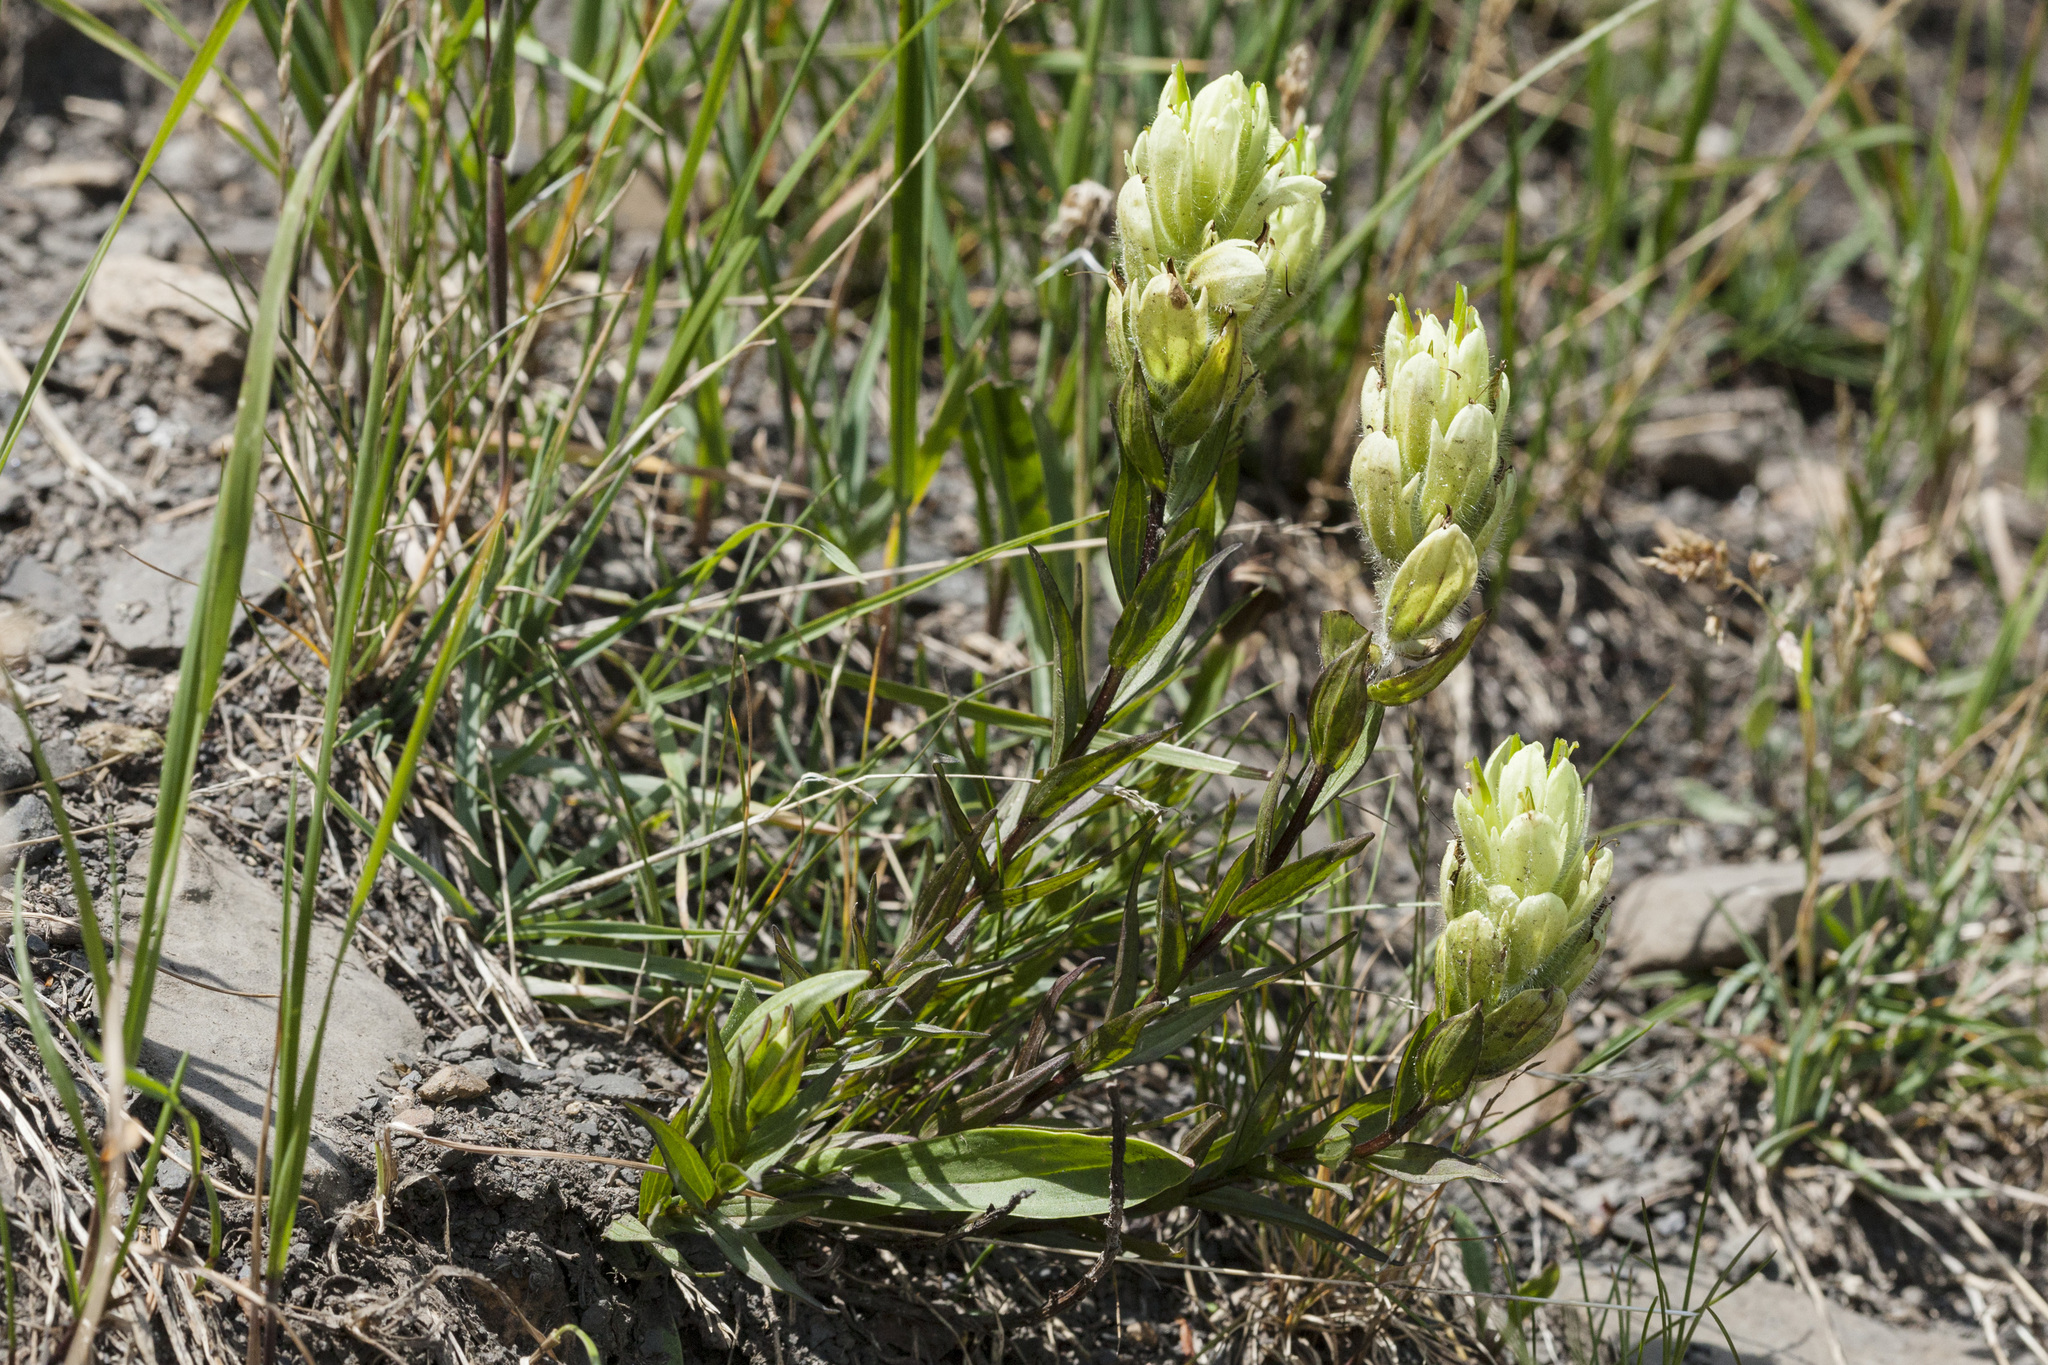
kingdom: Plantae
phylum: Tracheophyta
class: Magnoliopsida
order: Lamiales
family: Orobanchaceae
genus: Castilleja
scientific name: Castilleja septentrionalis
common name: Northeastern paintbrush
